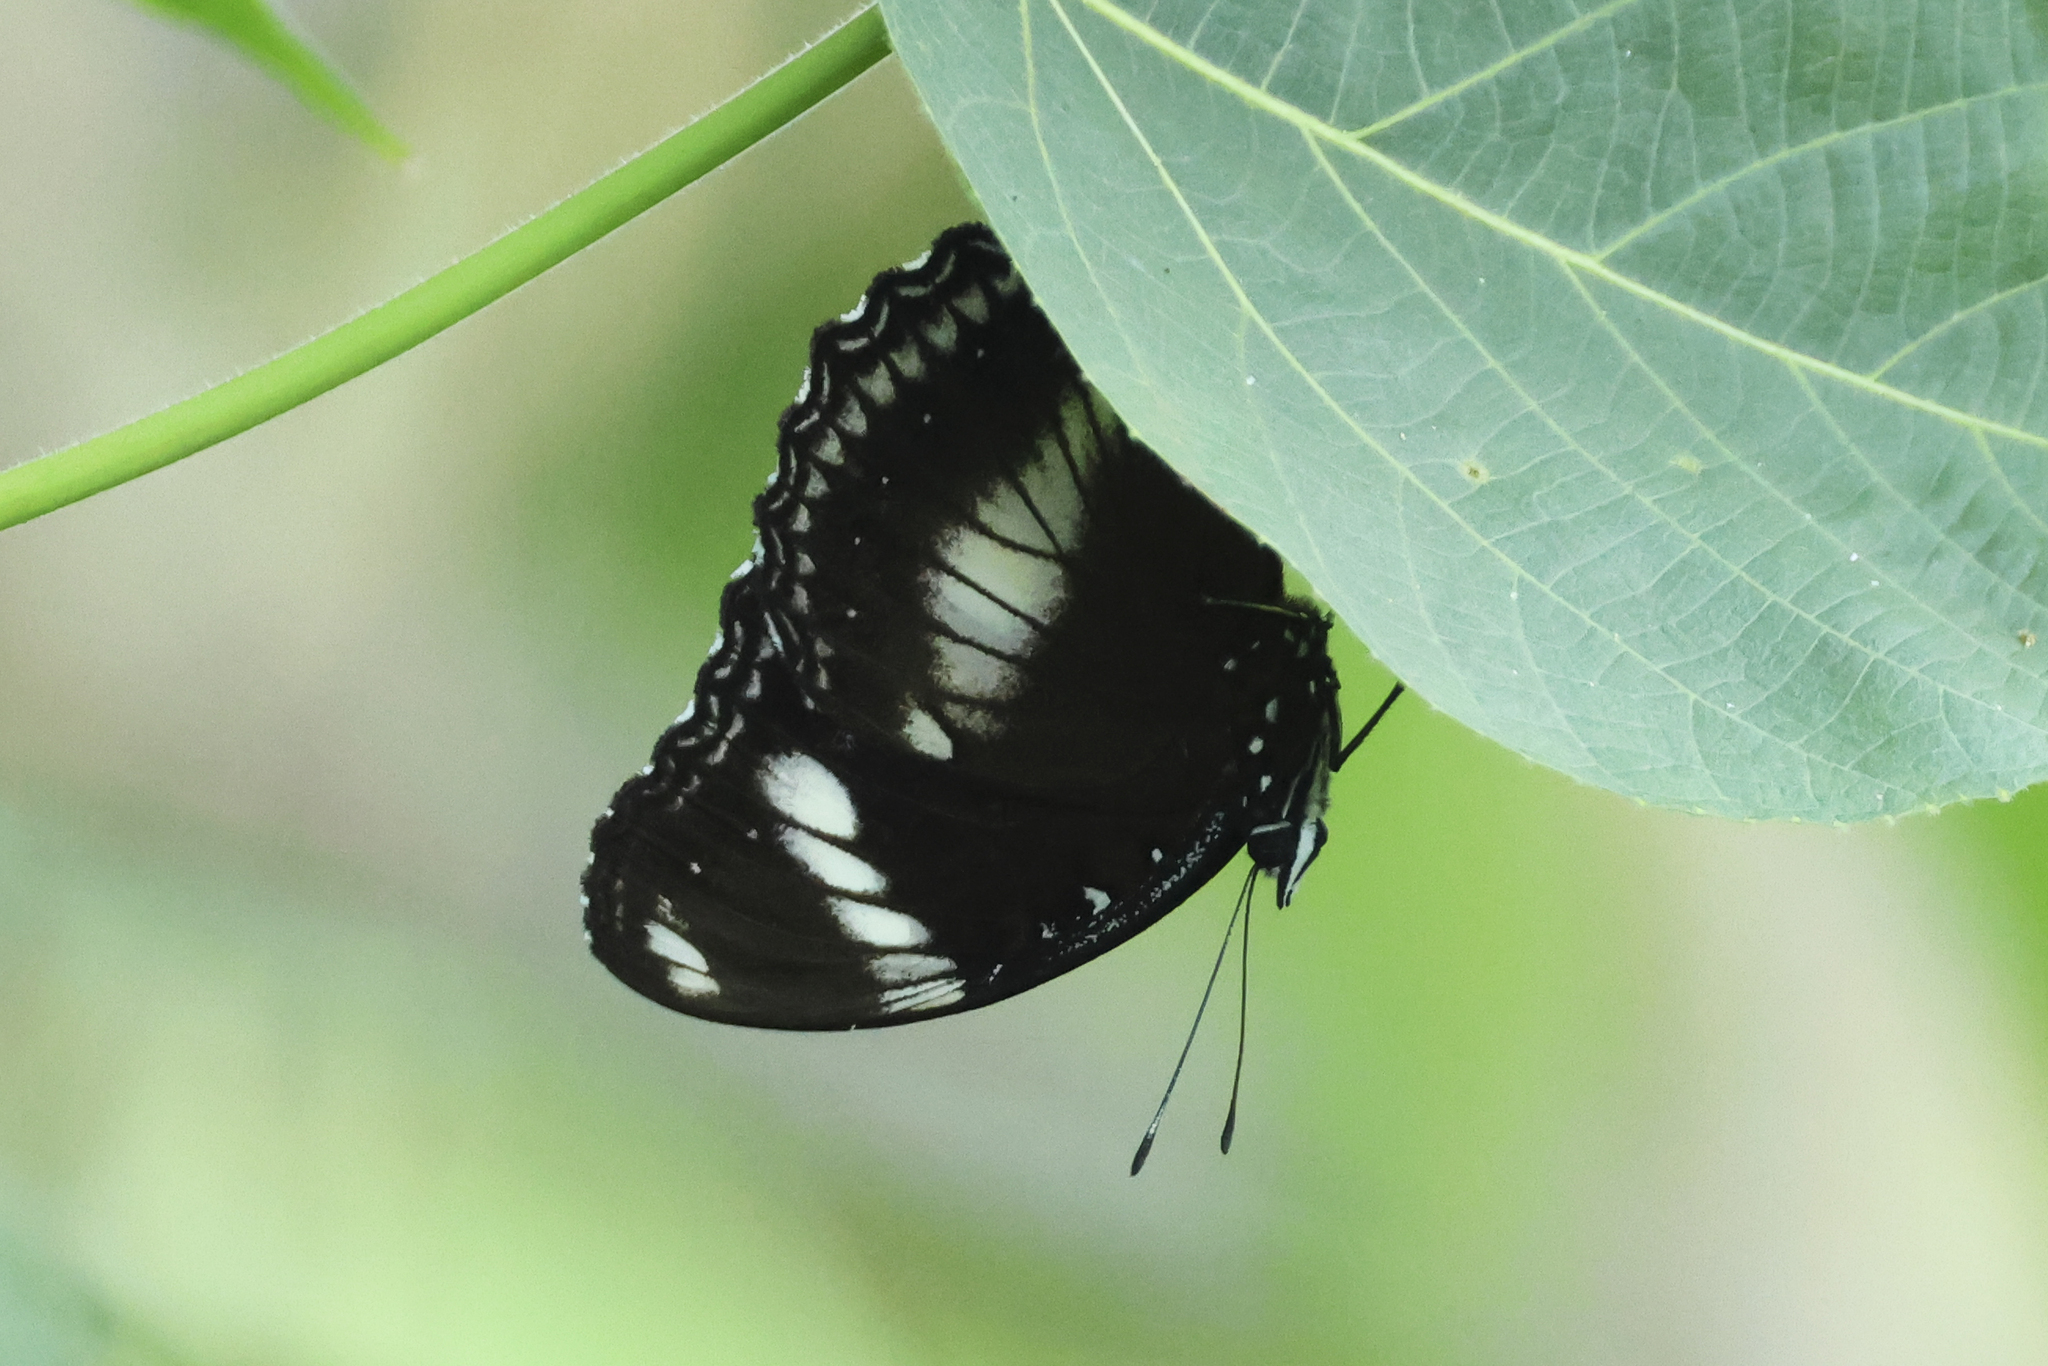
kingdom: Animalia
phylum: Arthropoda
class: Insecta
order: Lepidoptera
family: Nymphalidae
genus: Hypolimnas
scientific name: Hypolimnas bolina
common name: Great eggfly
